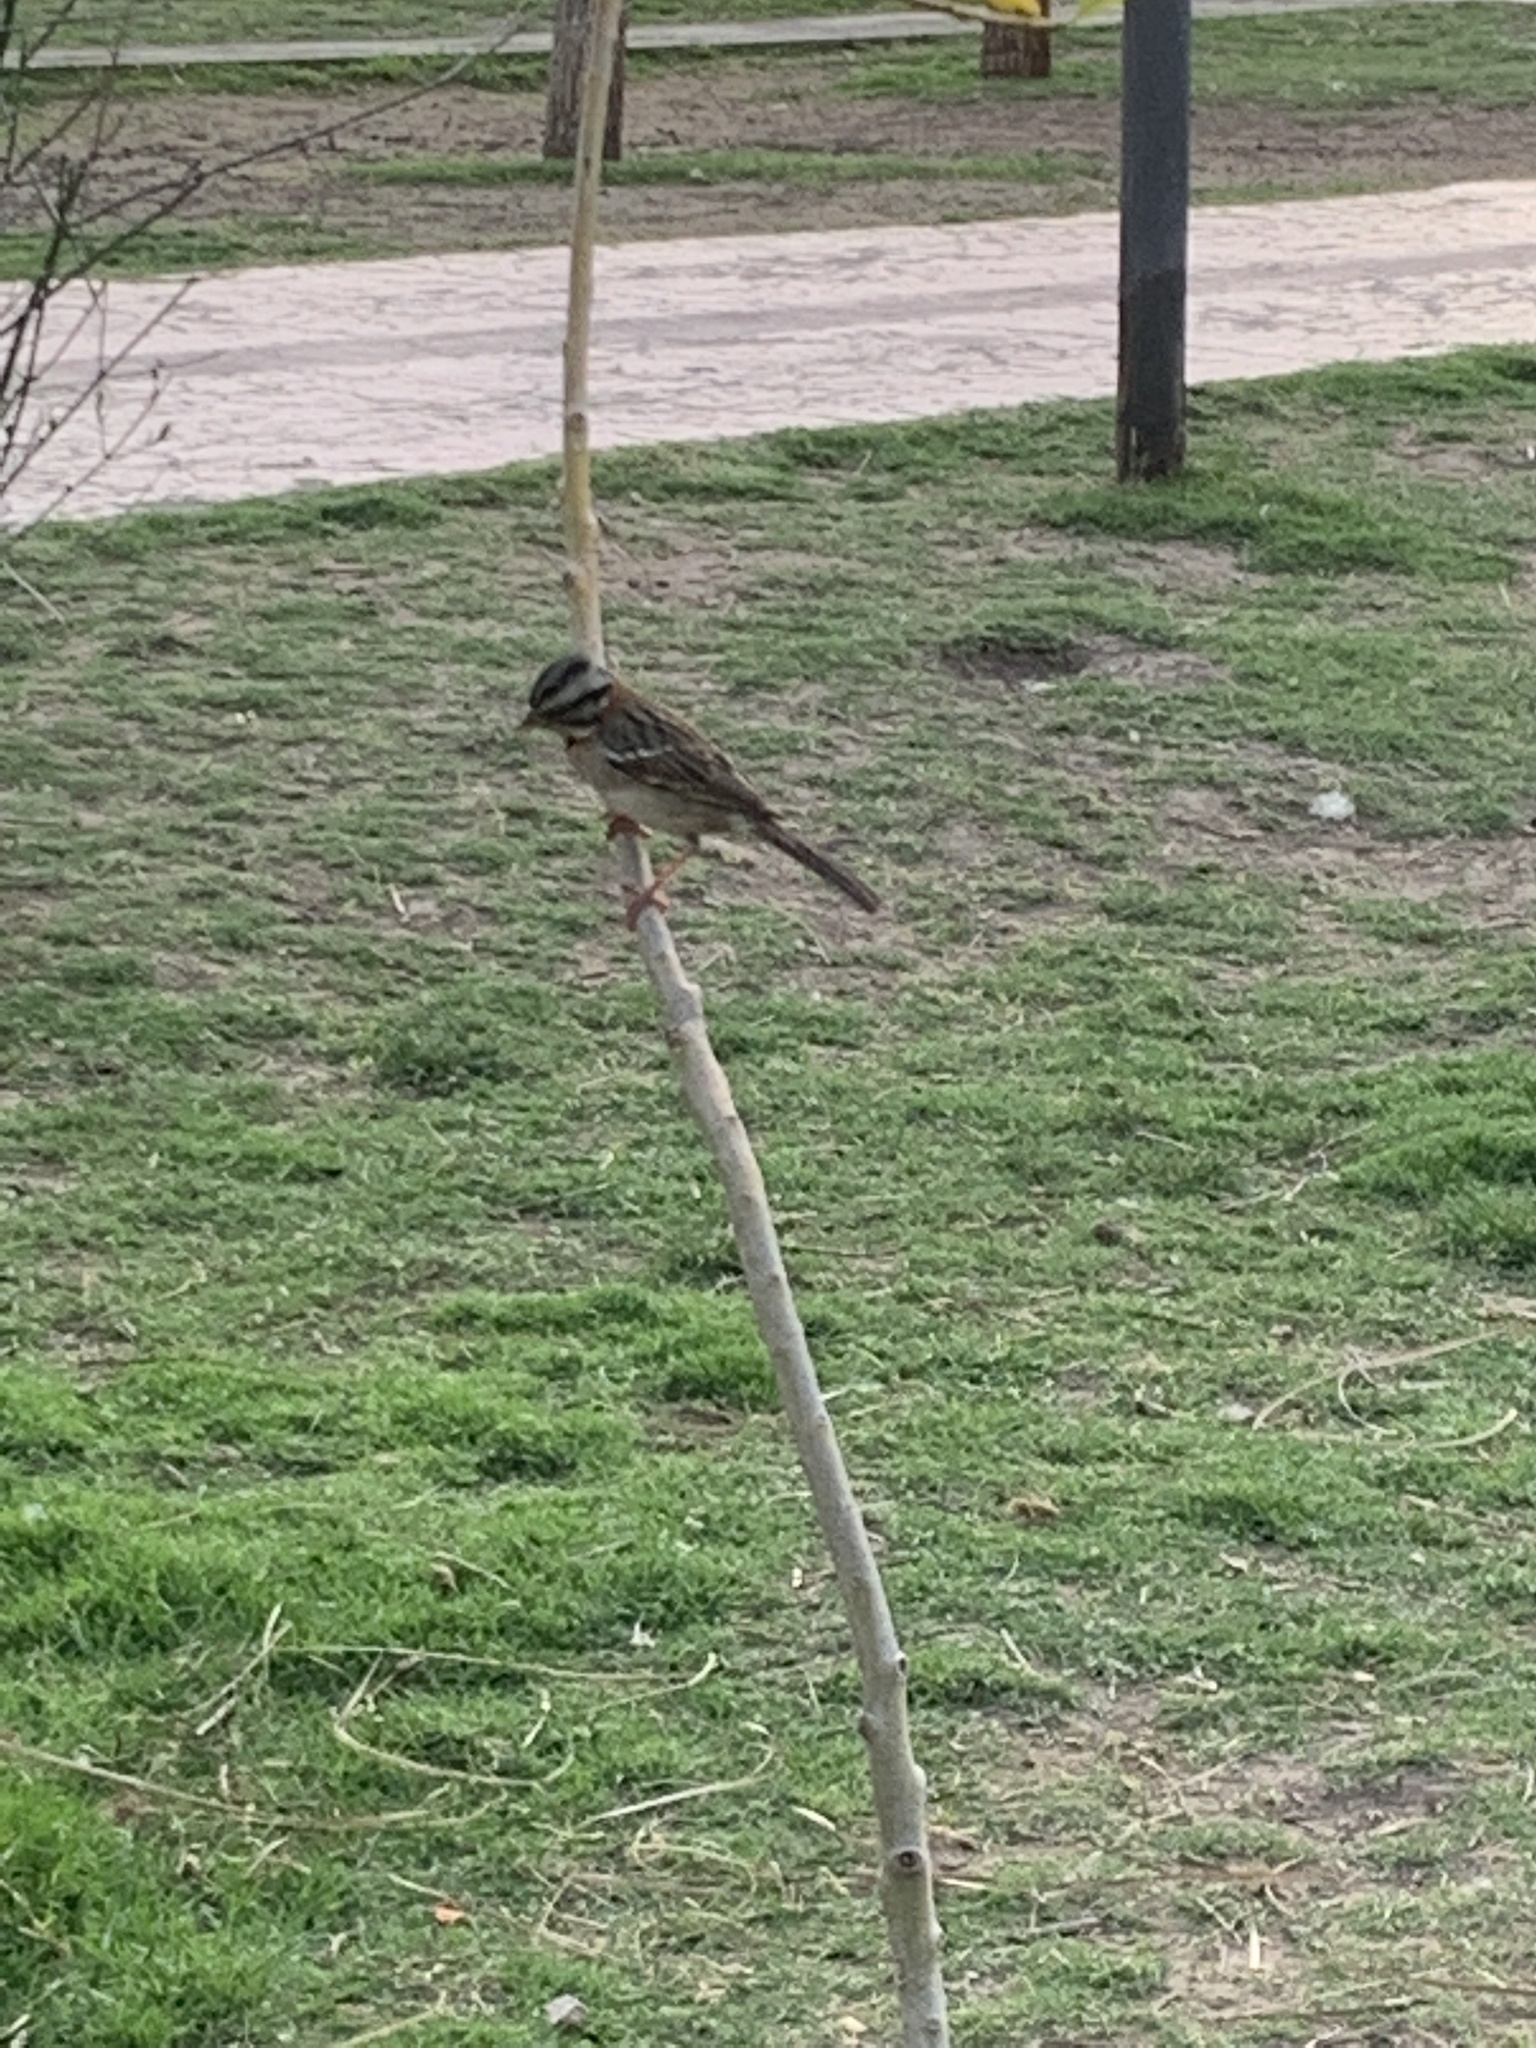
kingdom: Animalia
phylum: Chordata
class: Aves
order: Passeriformes
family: Passerellidae
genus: Zonotrichia
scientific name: Zonotrichia capensis
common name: Rufous-collared sparrow
